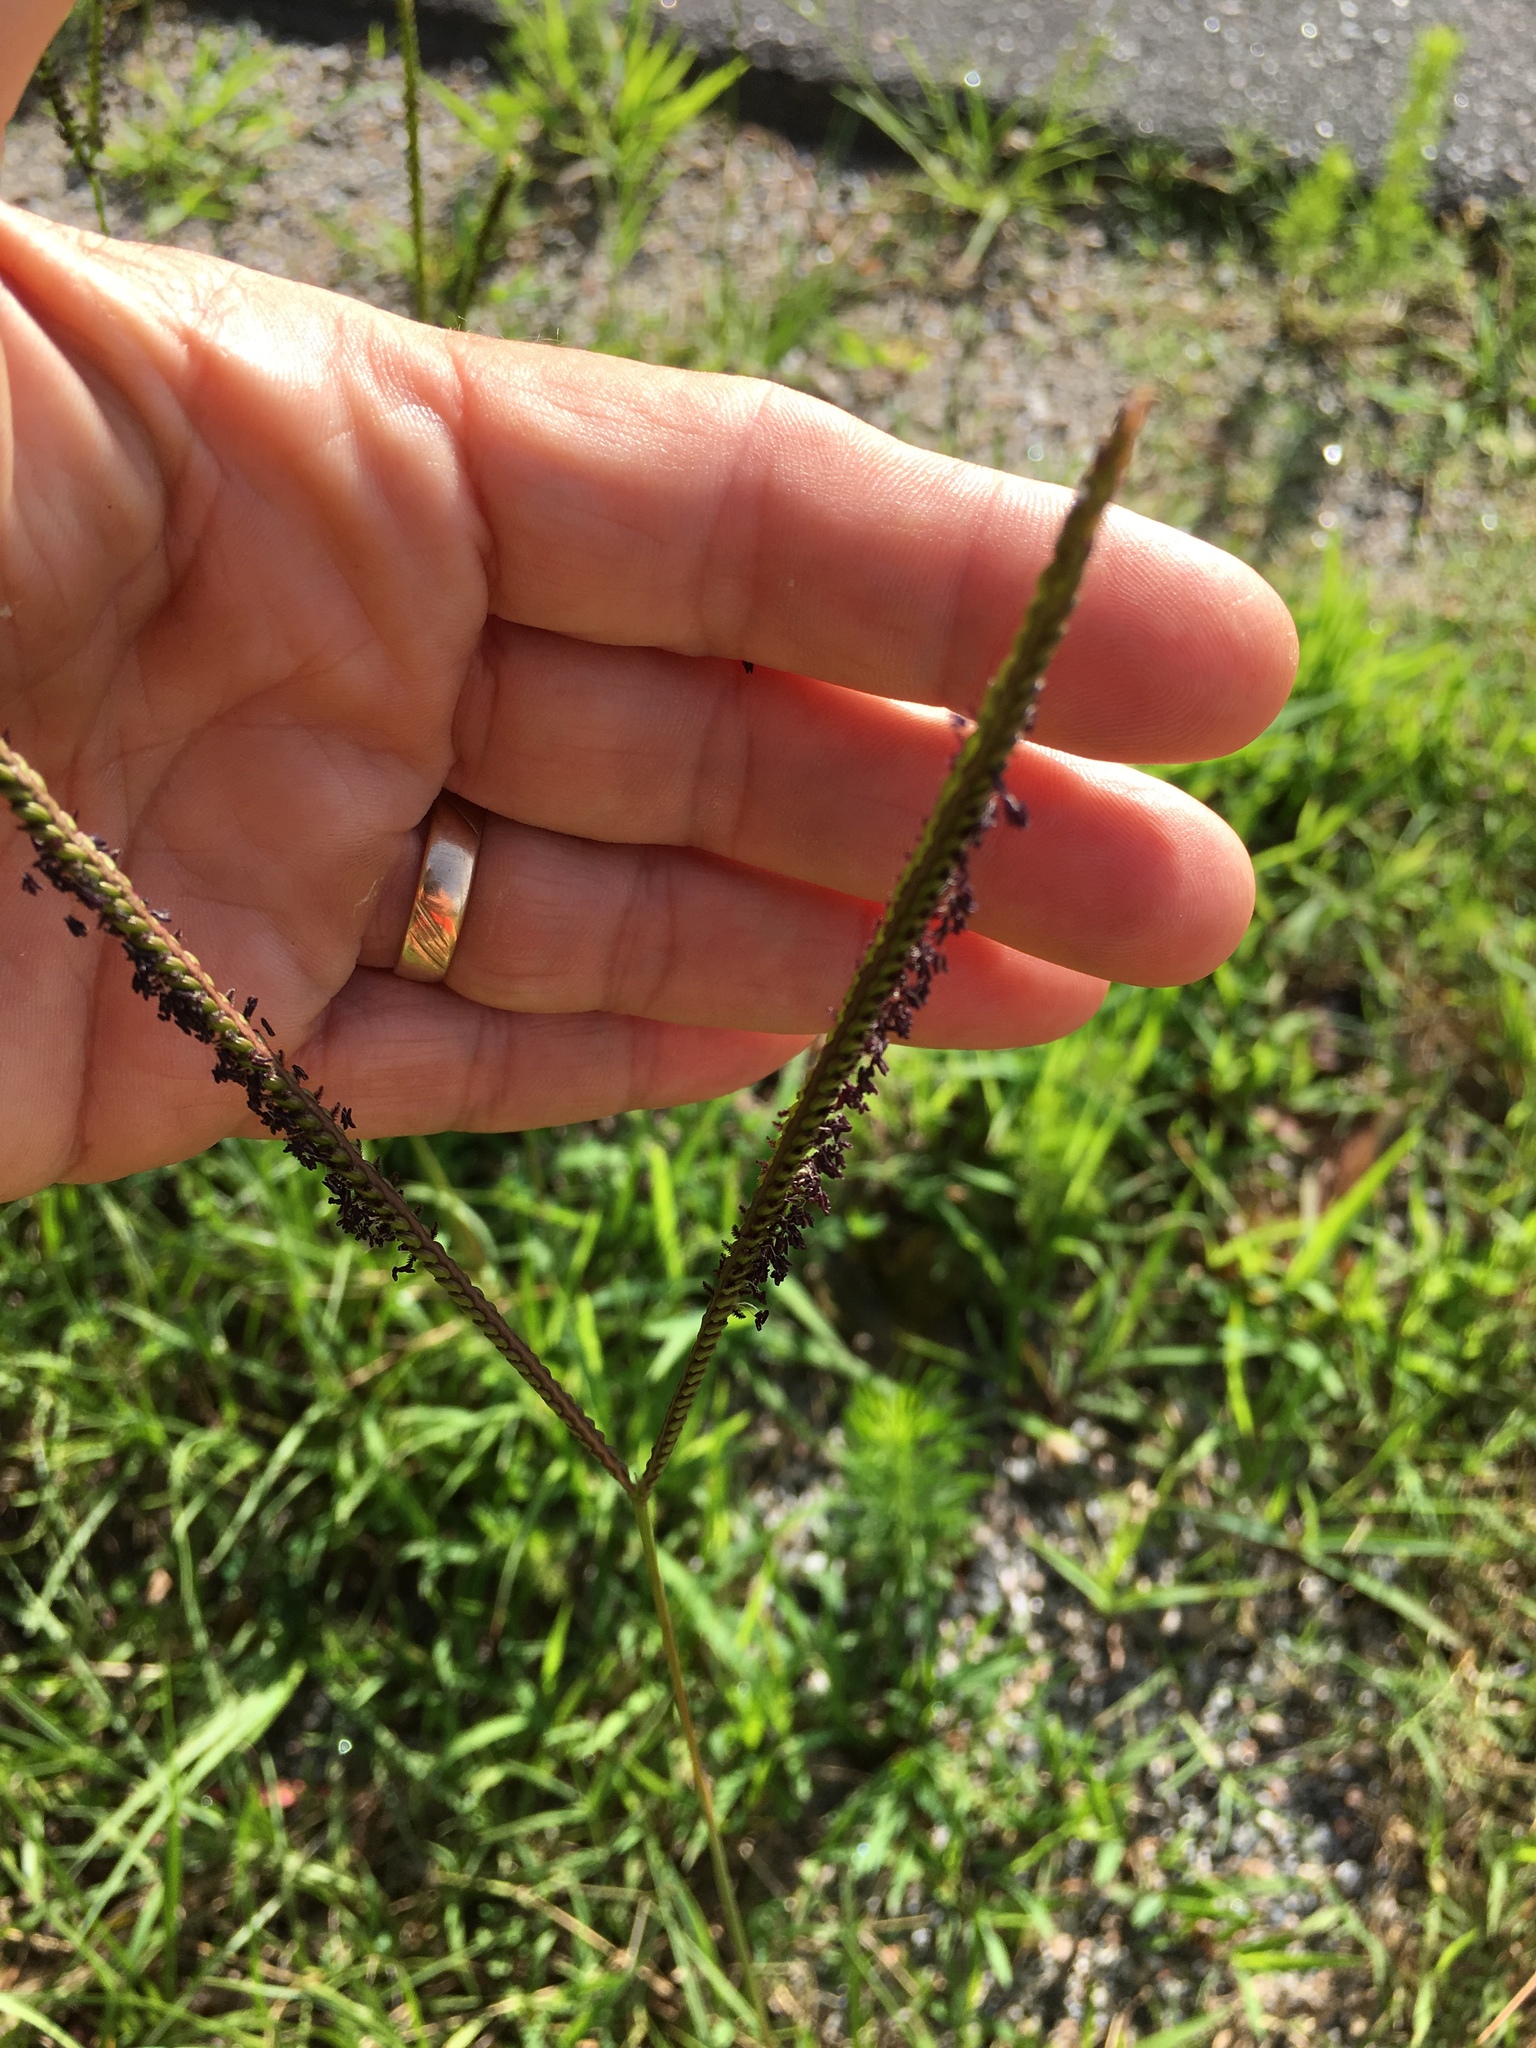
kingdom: Plantae
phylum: Tracheophyta
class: Liliopsida
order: Poales
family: Poaceae
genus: Paspalum
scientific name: Paspalum notatum
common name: Bahiagrass
